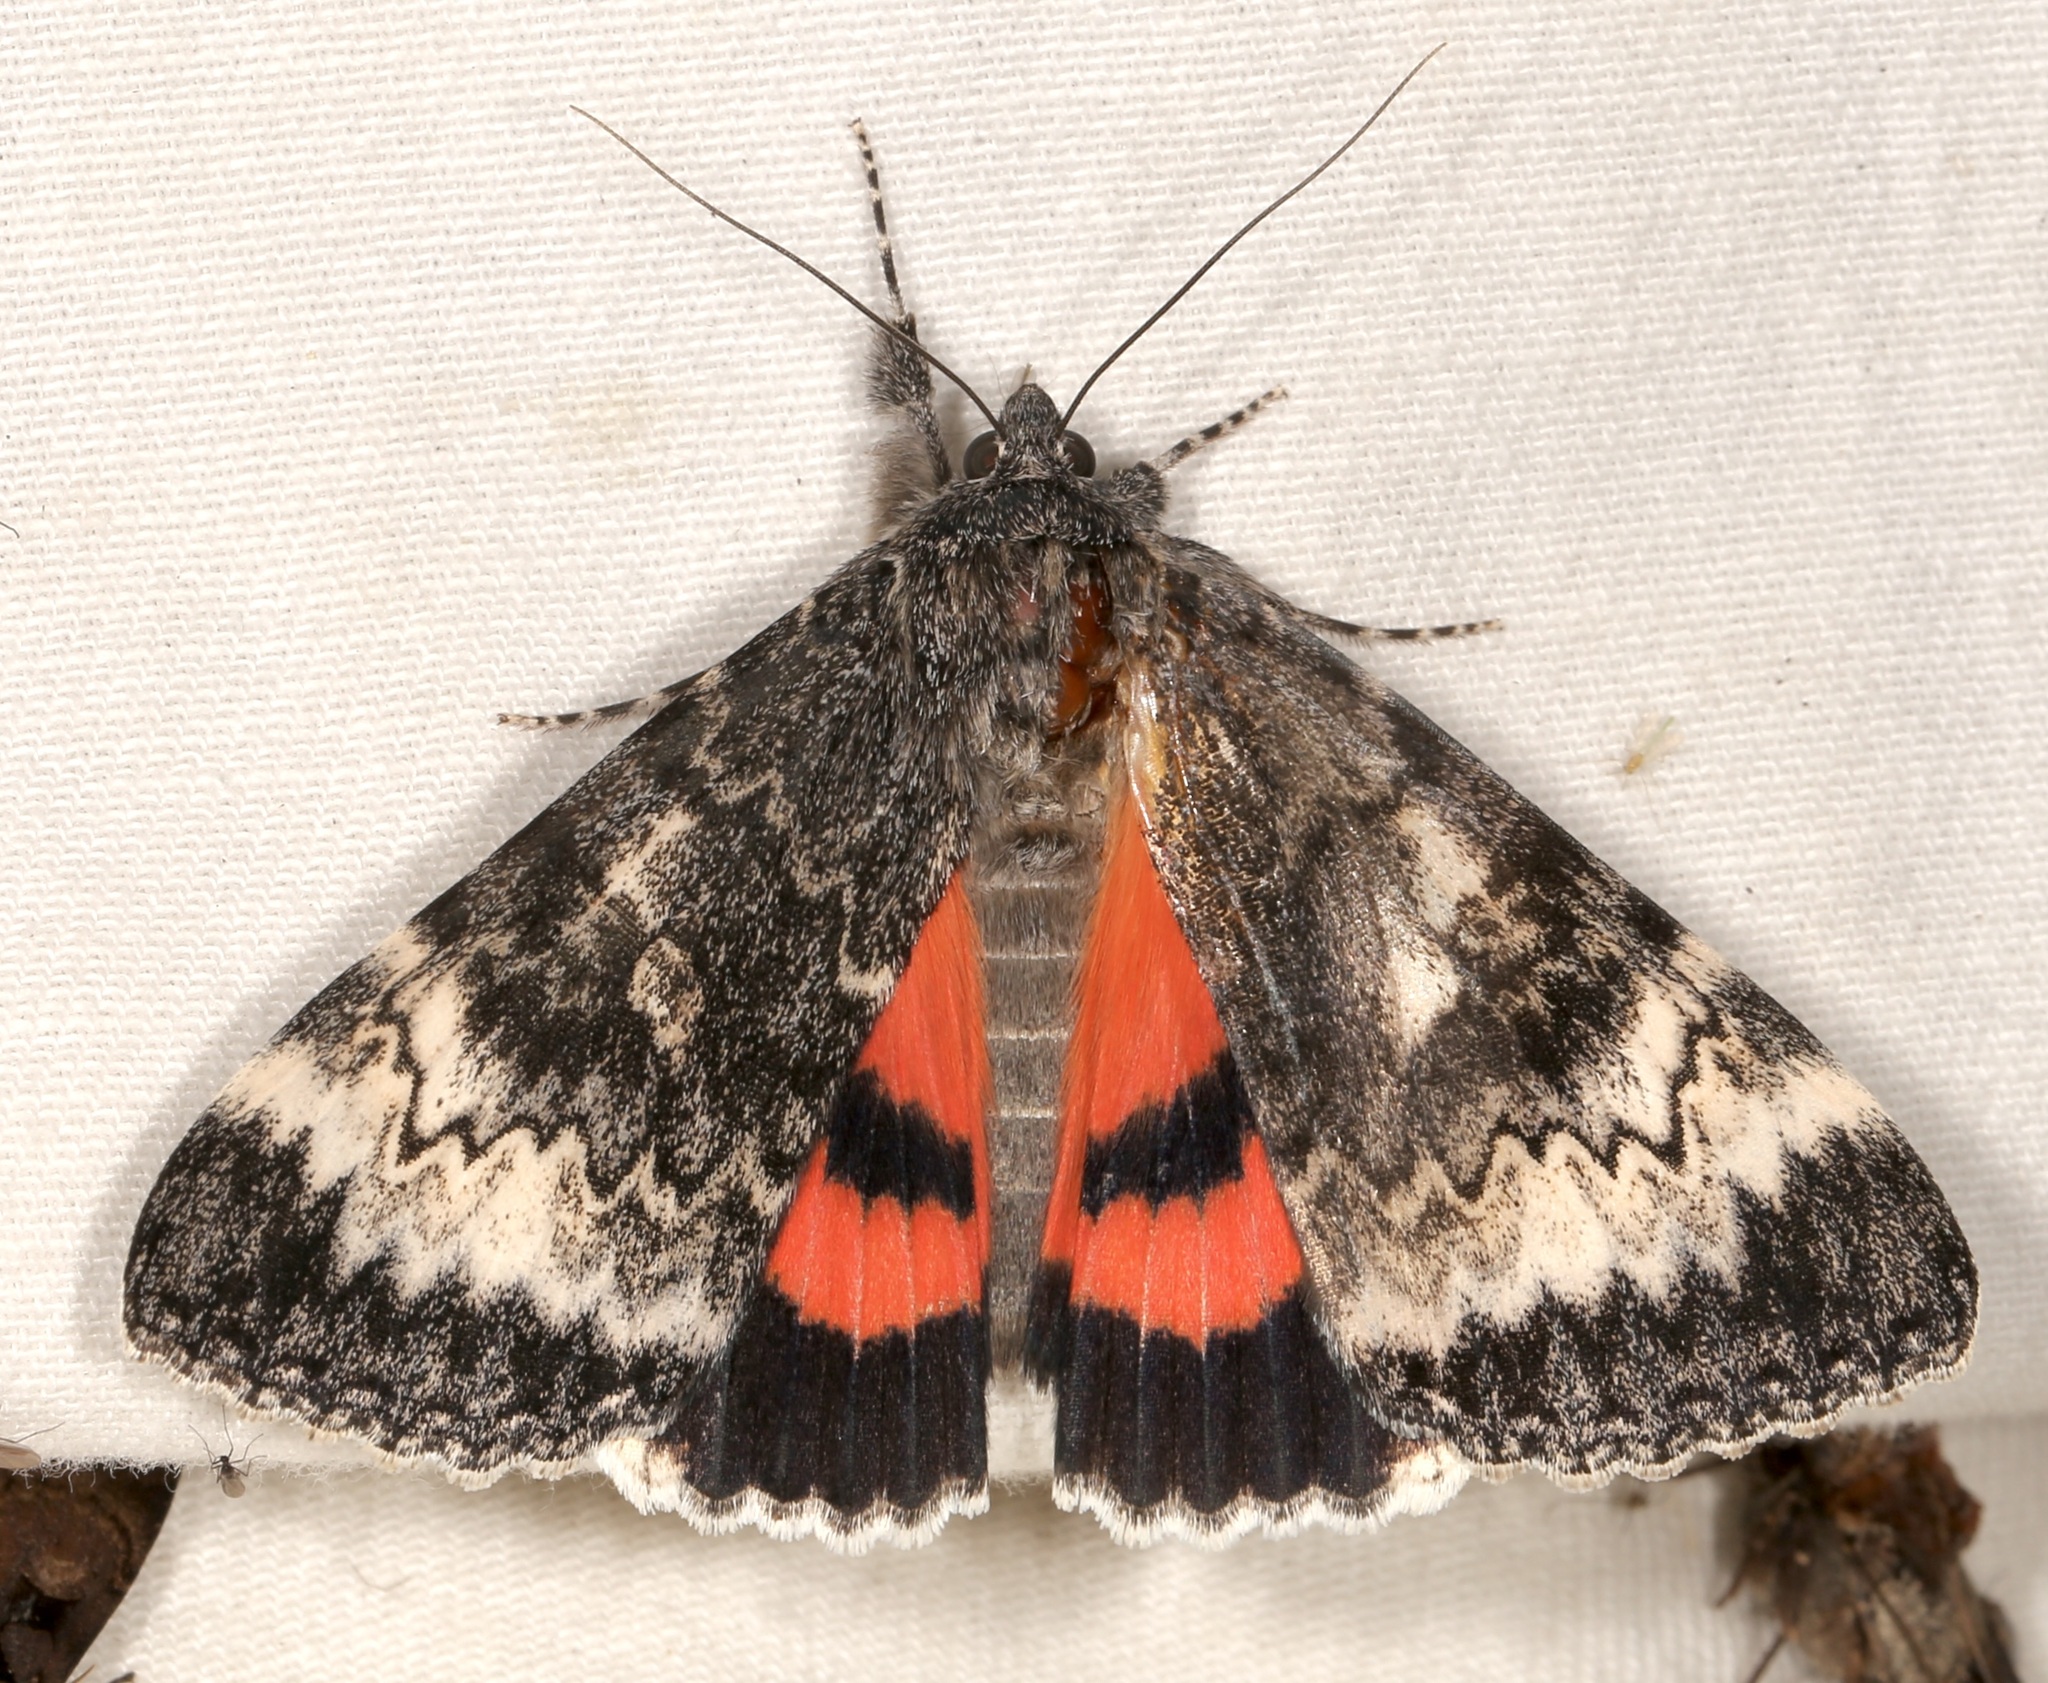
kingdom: Animalia
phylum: Arthropoda
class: Insecta
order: Lepidoptera
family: Erebidae
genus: Catocala
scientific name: Catocala grotiana
